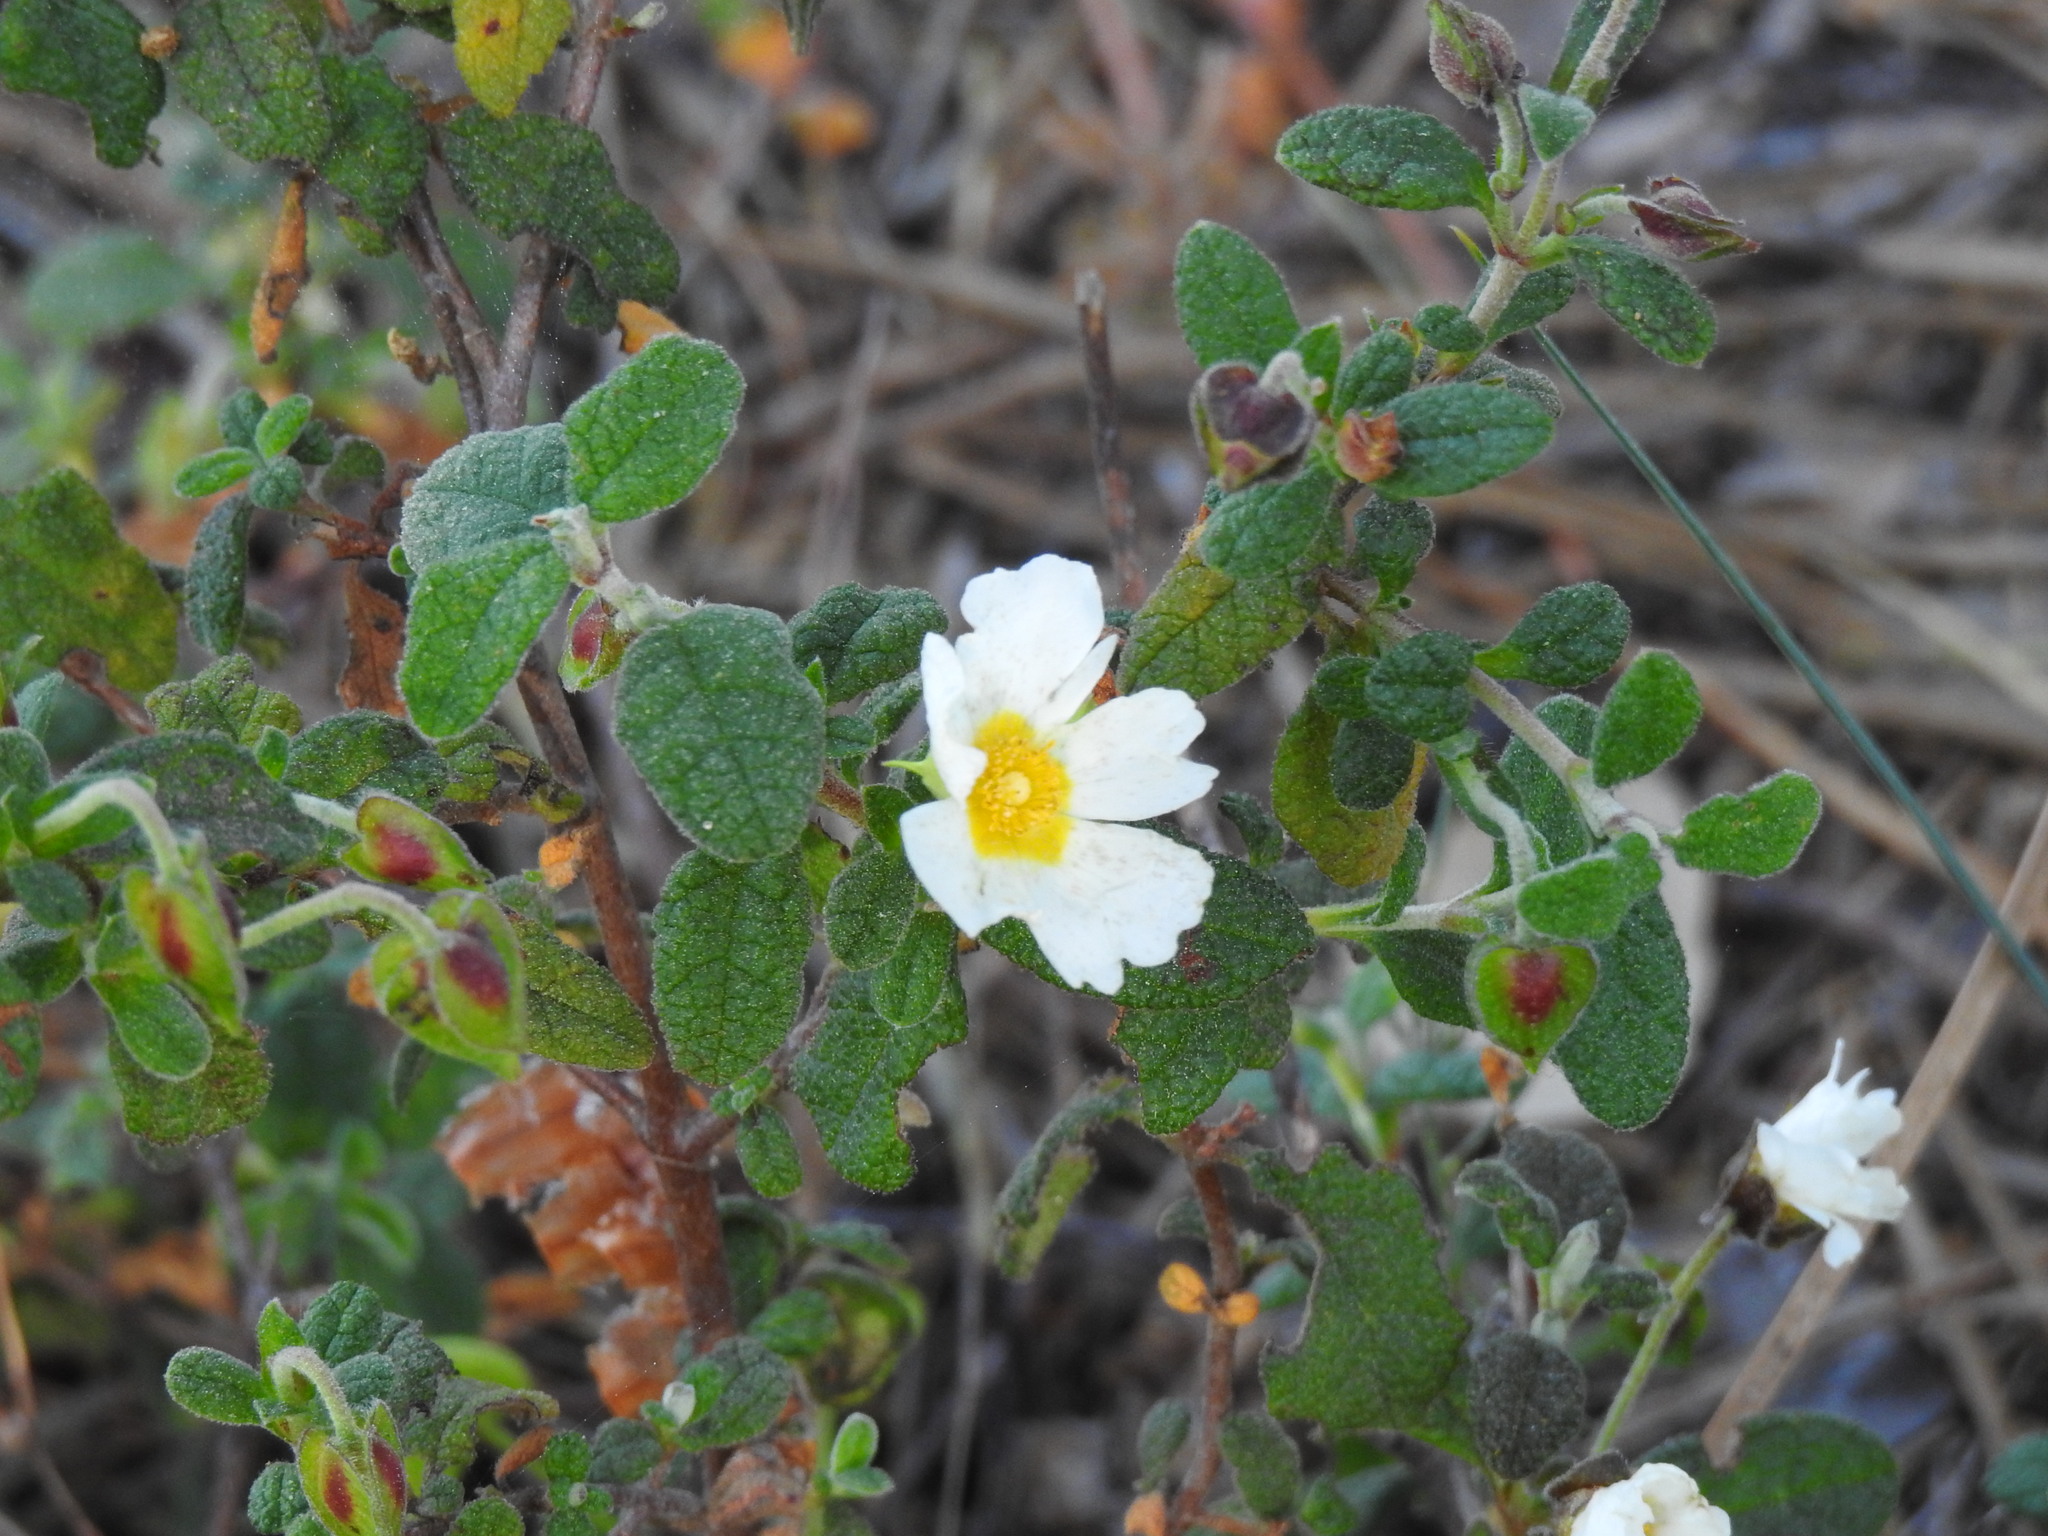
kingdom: Plantae
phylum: Tracheophyta
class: Magnoliopsida
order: Malvales
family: Cistaceae
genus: Cistus
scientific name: Cistus salviifolius
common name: Salvia cistus
